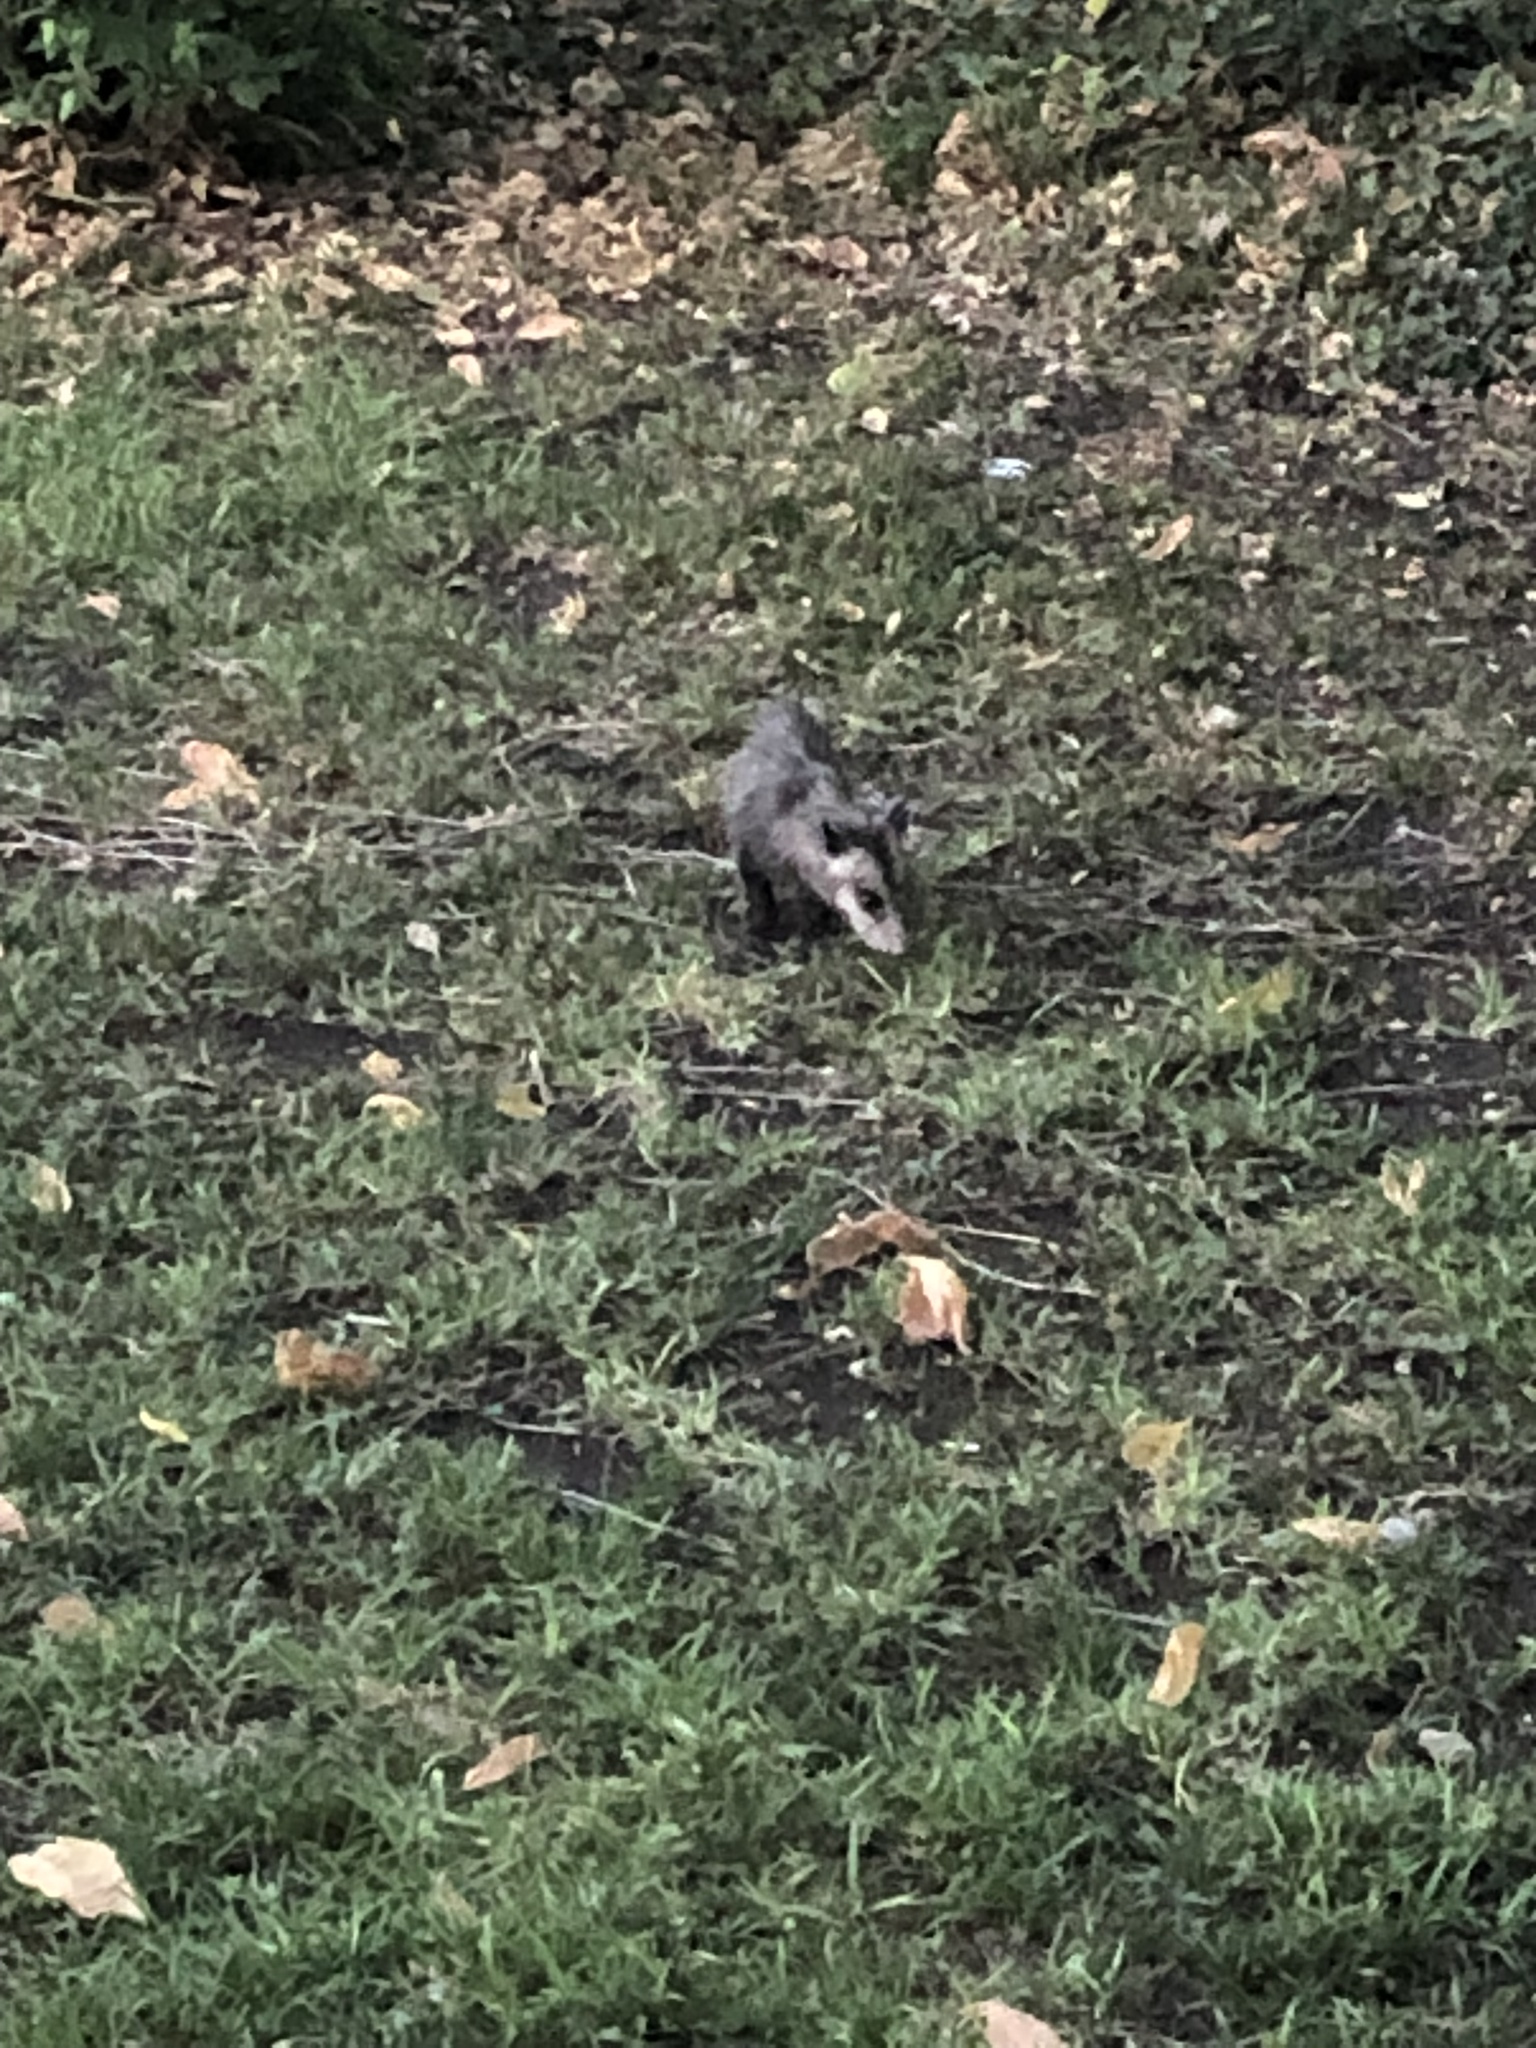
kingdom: Animalia
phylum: Chordata
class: Mammalia
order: Didelphimorphia
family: Didelphidae
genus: Didelphis
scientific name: Didelphis virginiana
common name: Virginia opossum
